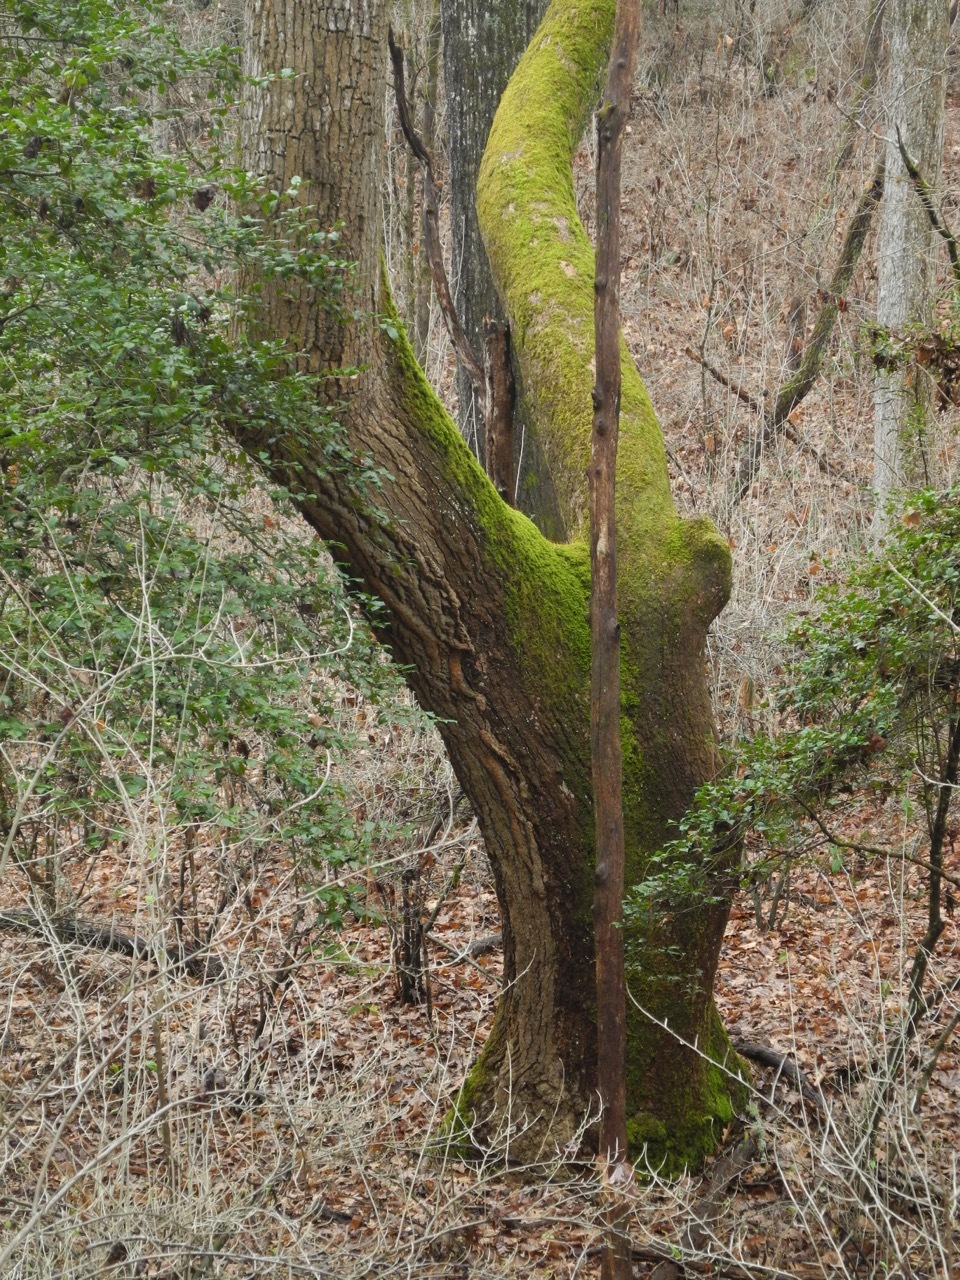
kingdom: Plantae
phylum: Tracheophyta
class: Magnoliopsida
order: Magnoliales
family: Magnoliaceae
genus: Liriodendron
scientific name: Liriodendron tulipifera
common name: Tulip tree
